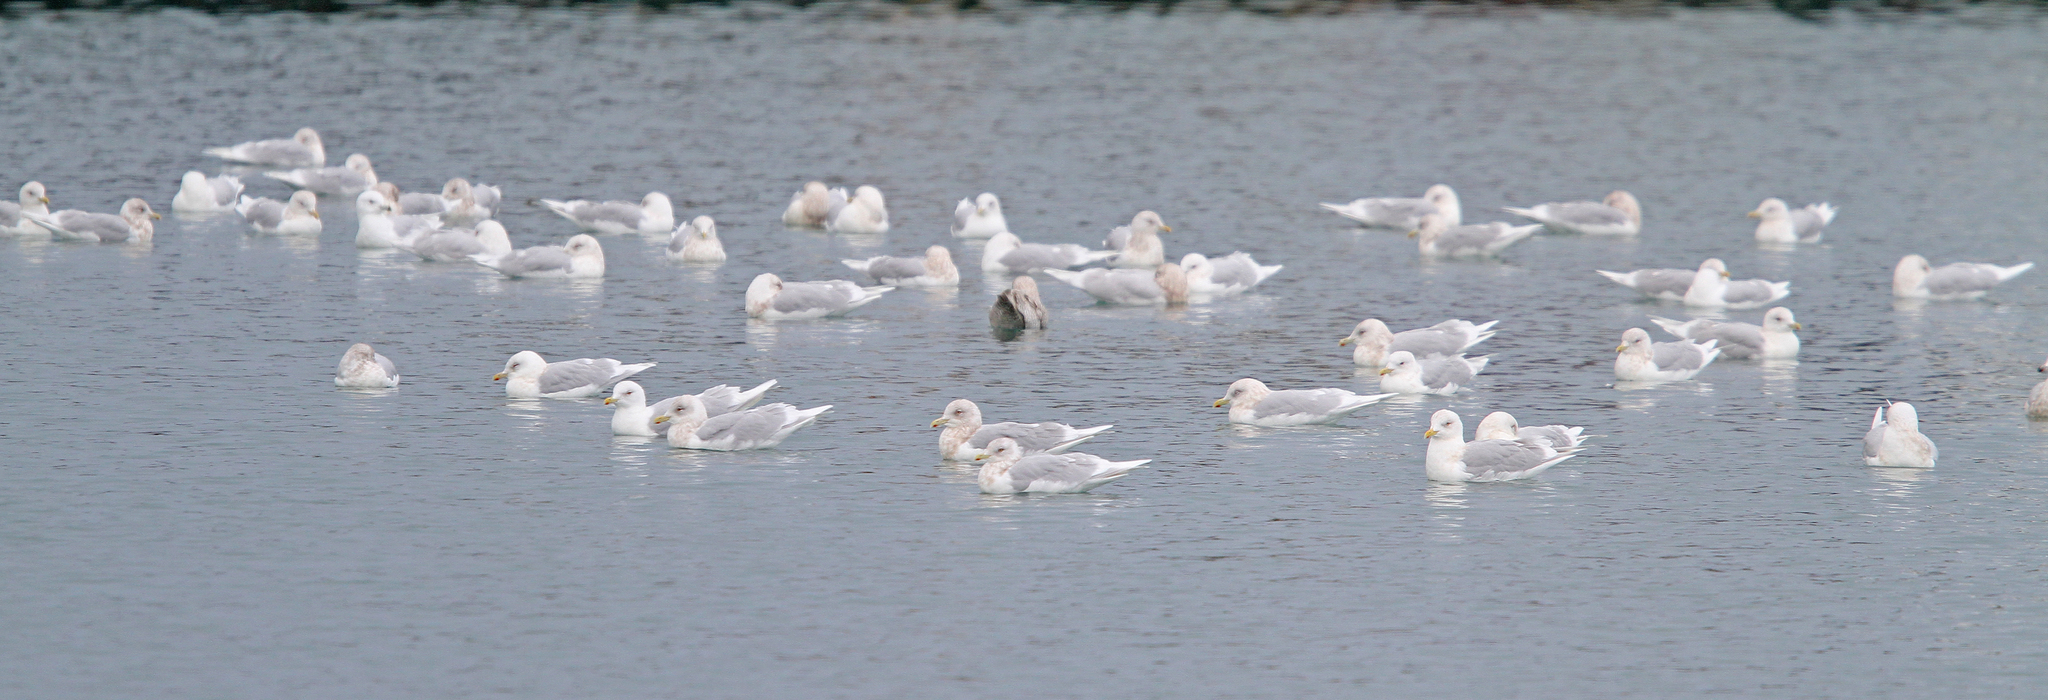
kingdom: Animalia
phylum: Chordata
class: Aves
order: Charadriiformes
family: Laridae
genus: Larus
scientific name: Larus glaucoides
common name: Iceland gull
